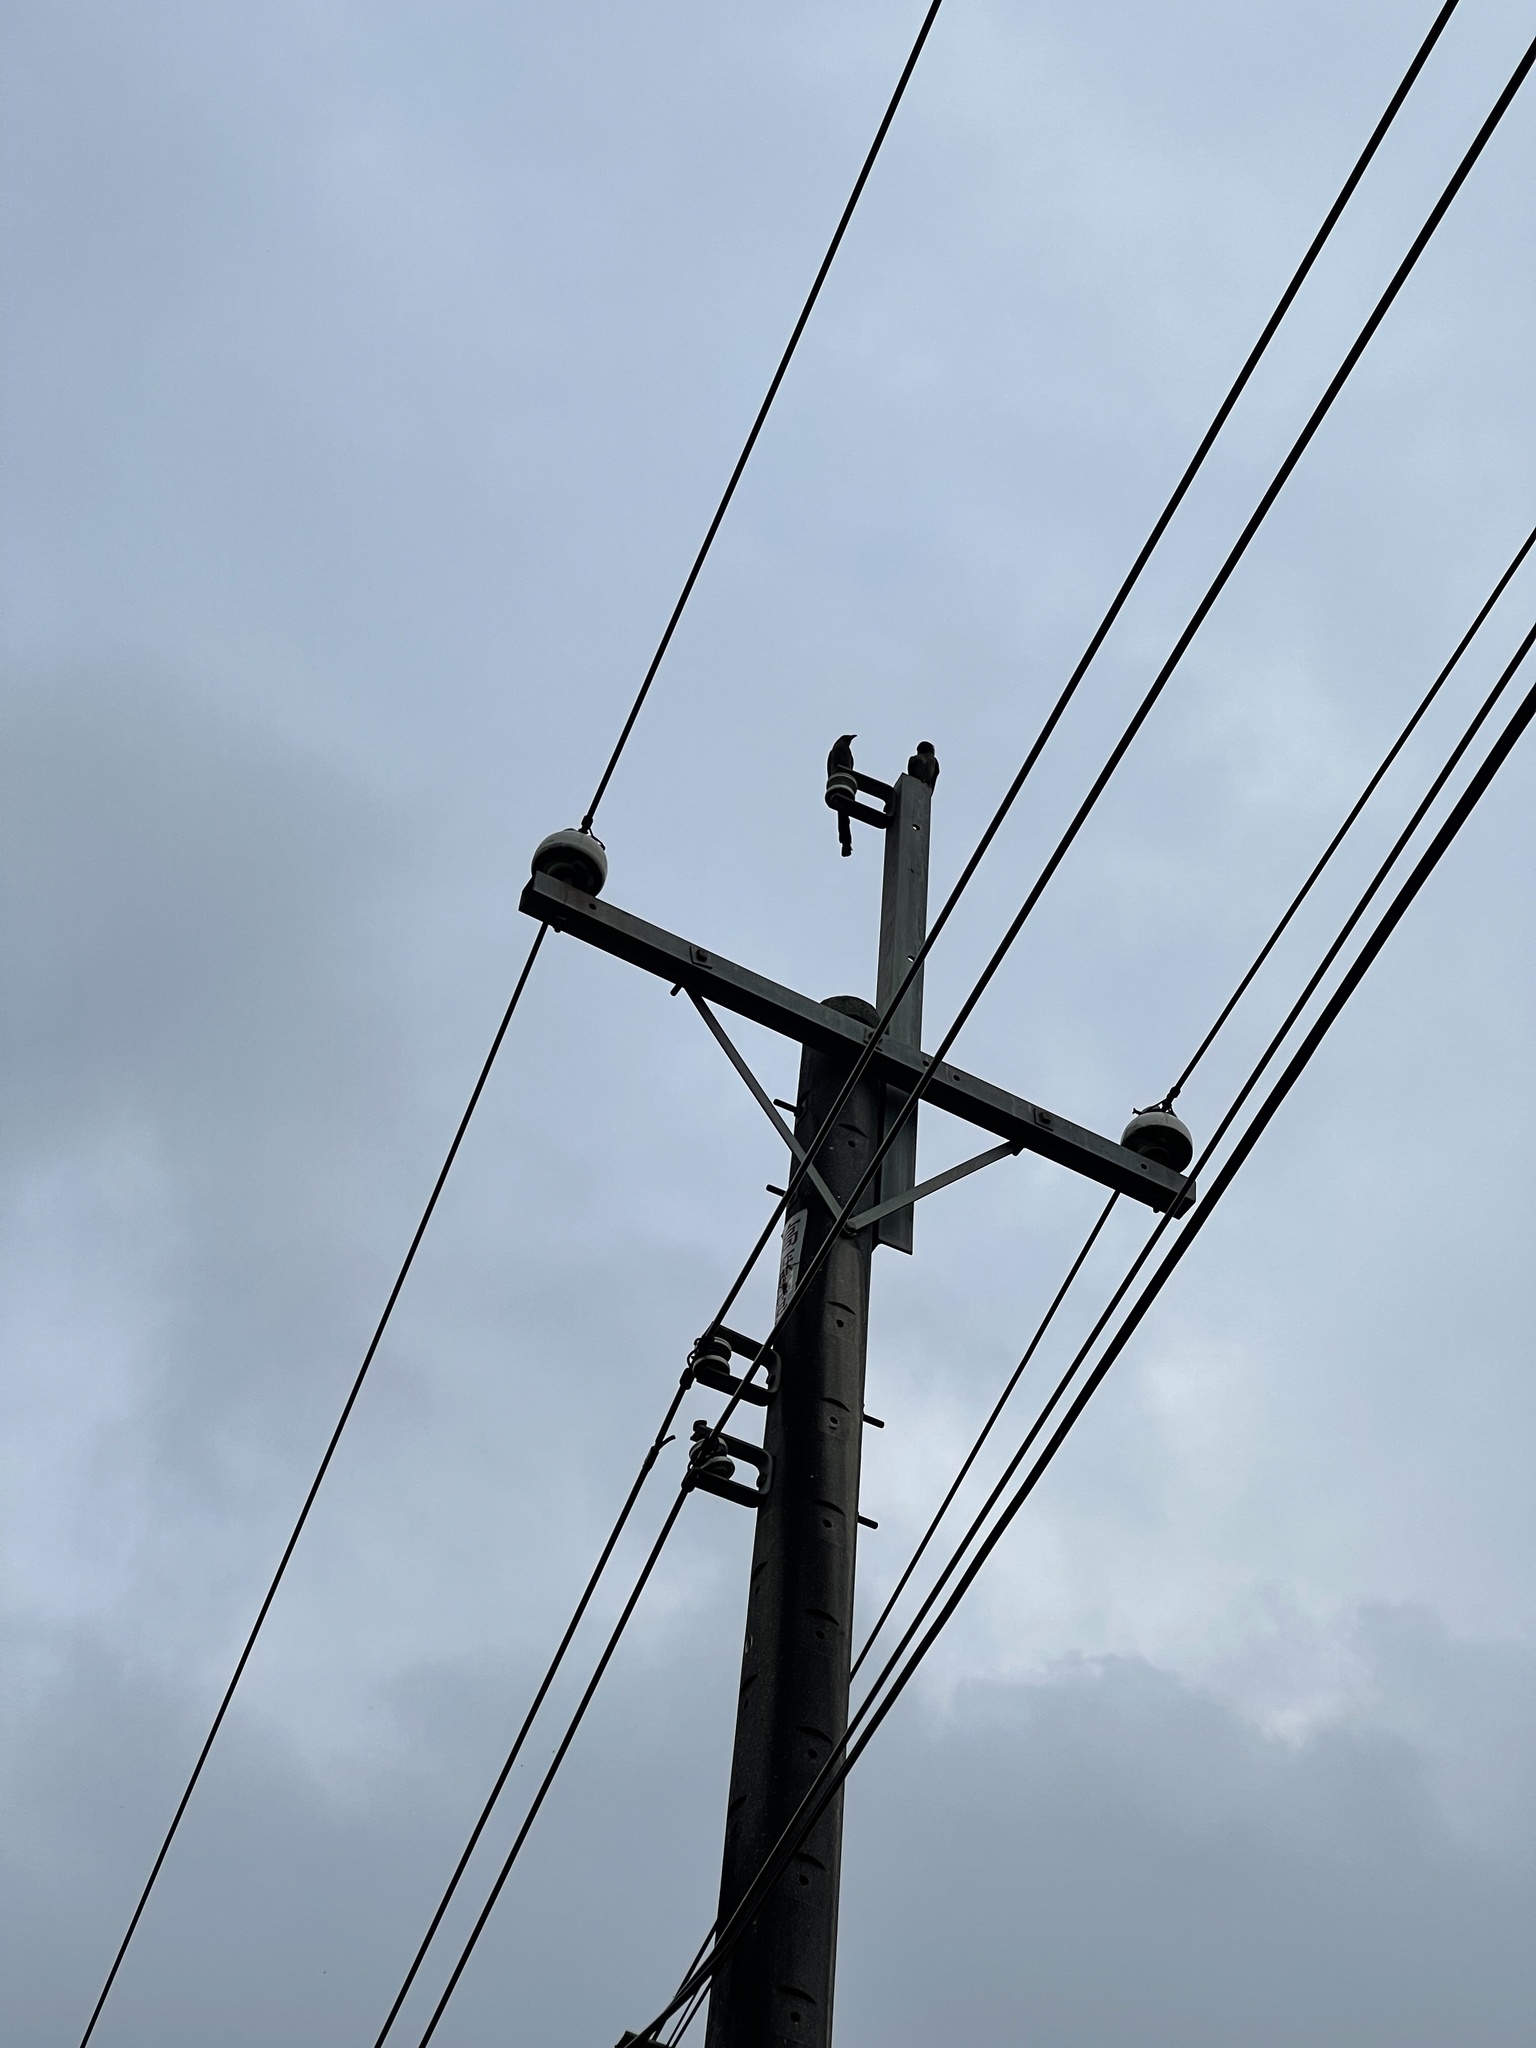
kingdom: Animalia
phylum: Chordata
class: Aves
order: Passeriformes
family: Corvidae
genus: Dendrocitta
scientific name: Dendrocitta formosae
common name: Grey treepie
